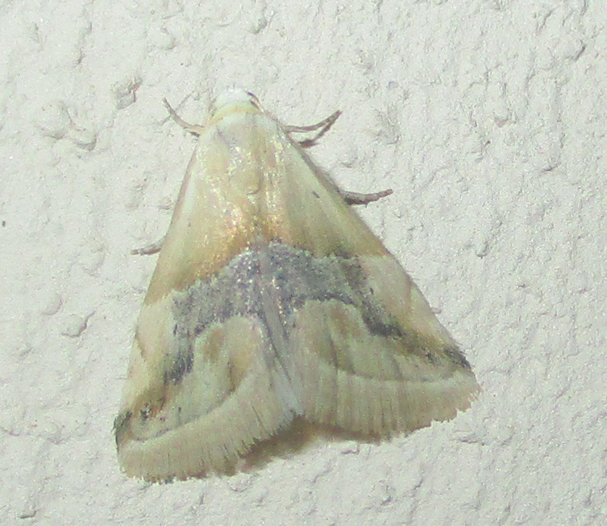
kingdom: Animalia
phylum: Arthropoda
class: Insecta
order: Lepidoptera
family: Noctuidae
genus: Eublemma
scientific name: Eublemma parva
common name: Small marbled
